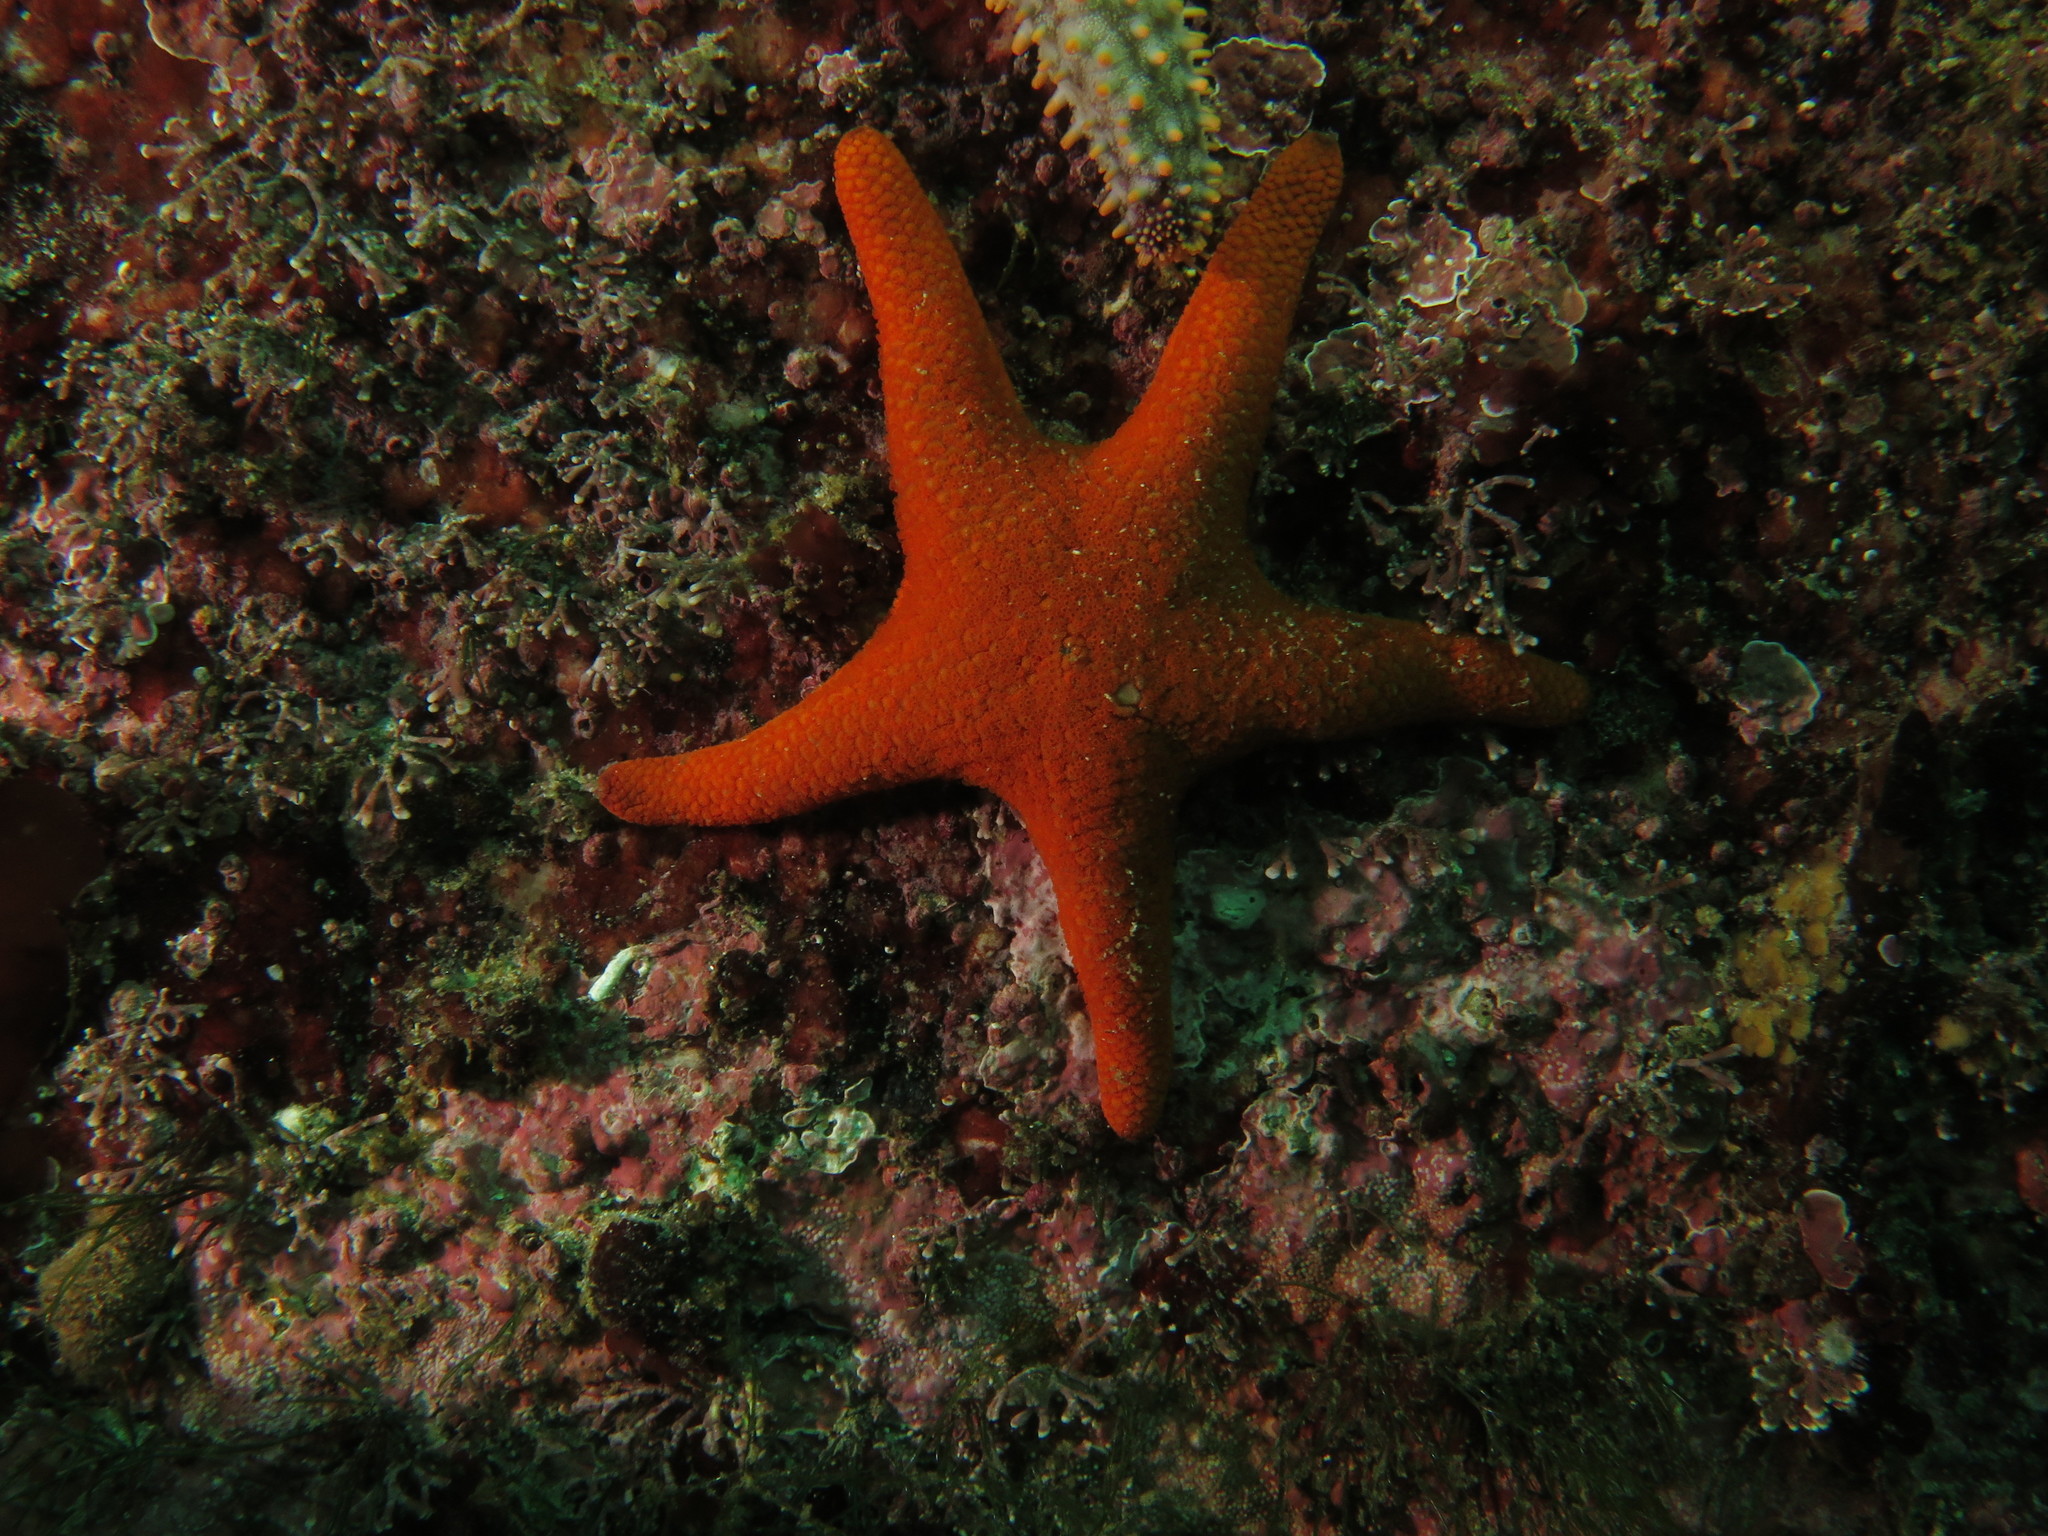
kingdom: Animalia
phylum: Echinodermata
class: Asteroidea
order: Valvatida
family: Asterinidae
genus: Callopatiria
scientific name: Callopatiria granifera
